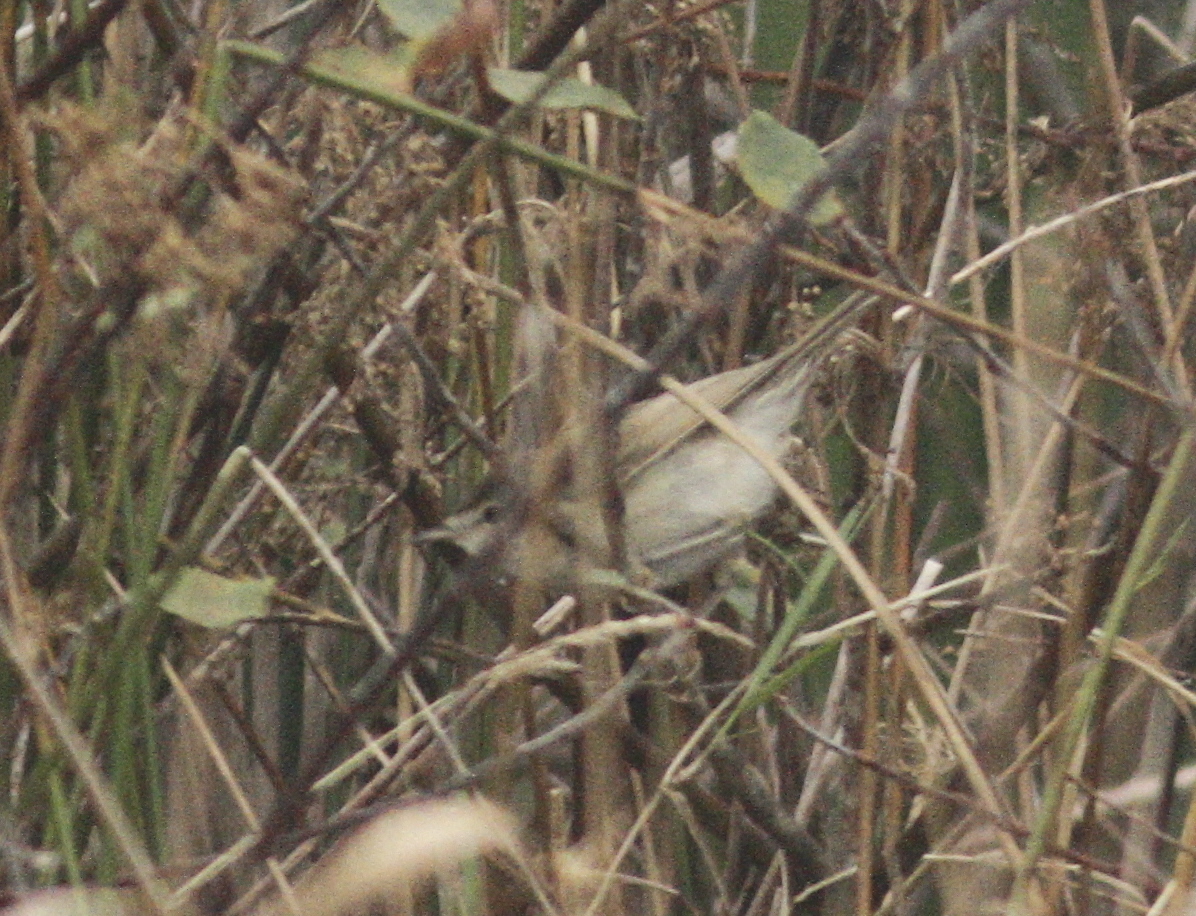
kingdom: Animalia
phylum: Chordata
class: Aves
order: Passeriformes
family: Acrocephalidae
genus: Acrocephalus
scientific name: Acrocephalus agricola
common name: Paddyfield warbler
